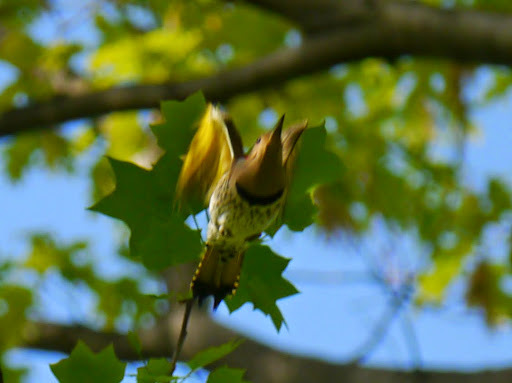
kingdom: Animalia
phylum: Chordata
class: Aves
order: Piciformes
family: Picidae
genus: Colaptes
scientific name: Colaptes auratus
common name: Northern flicker
